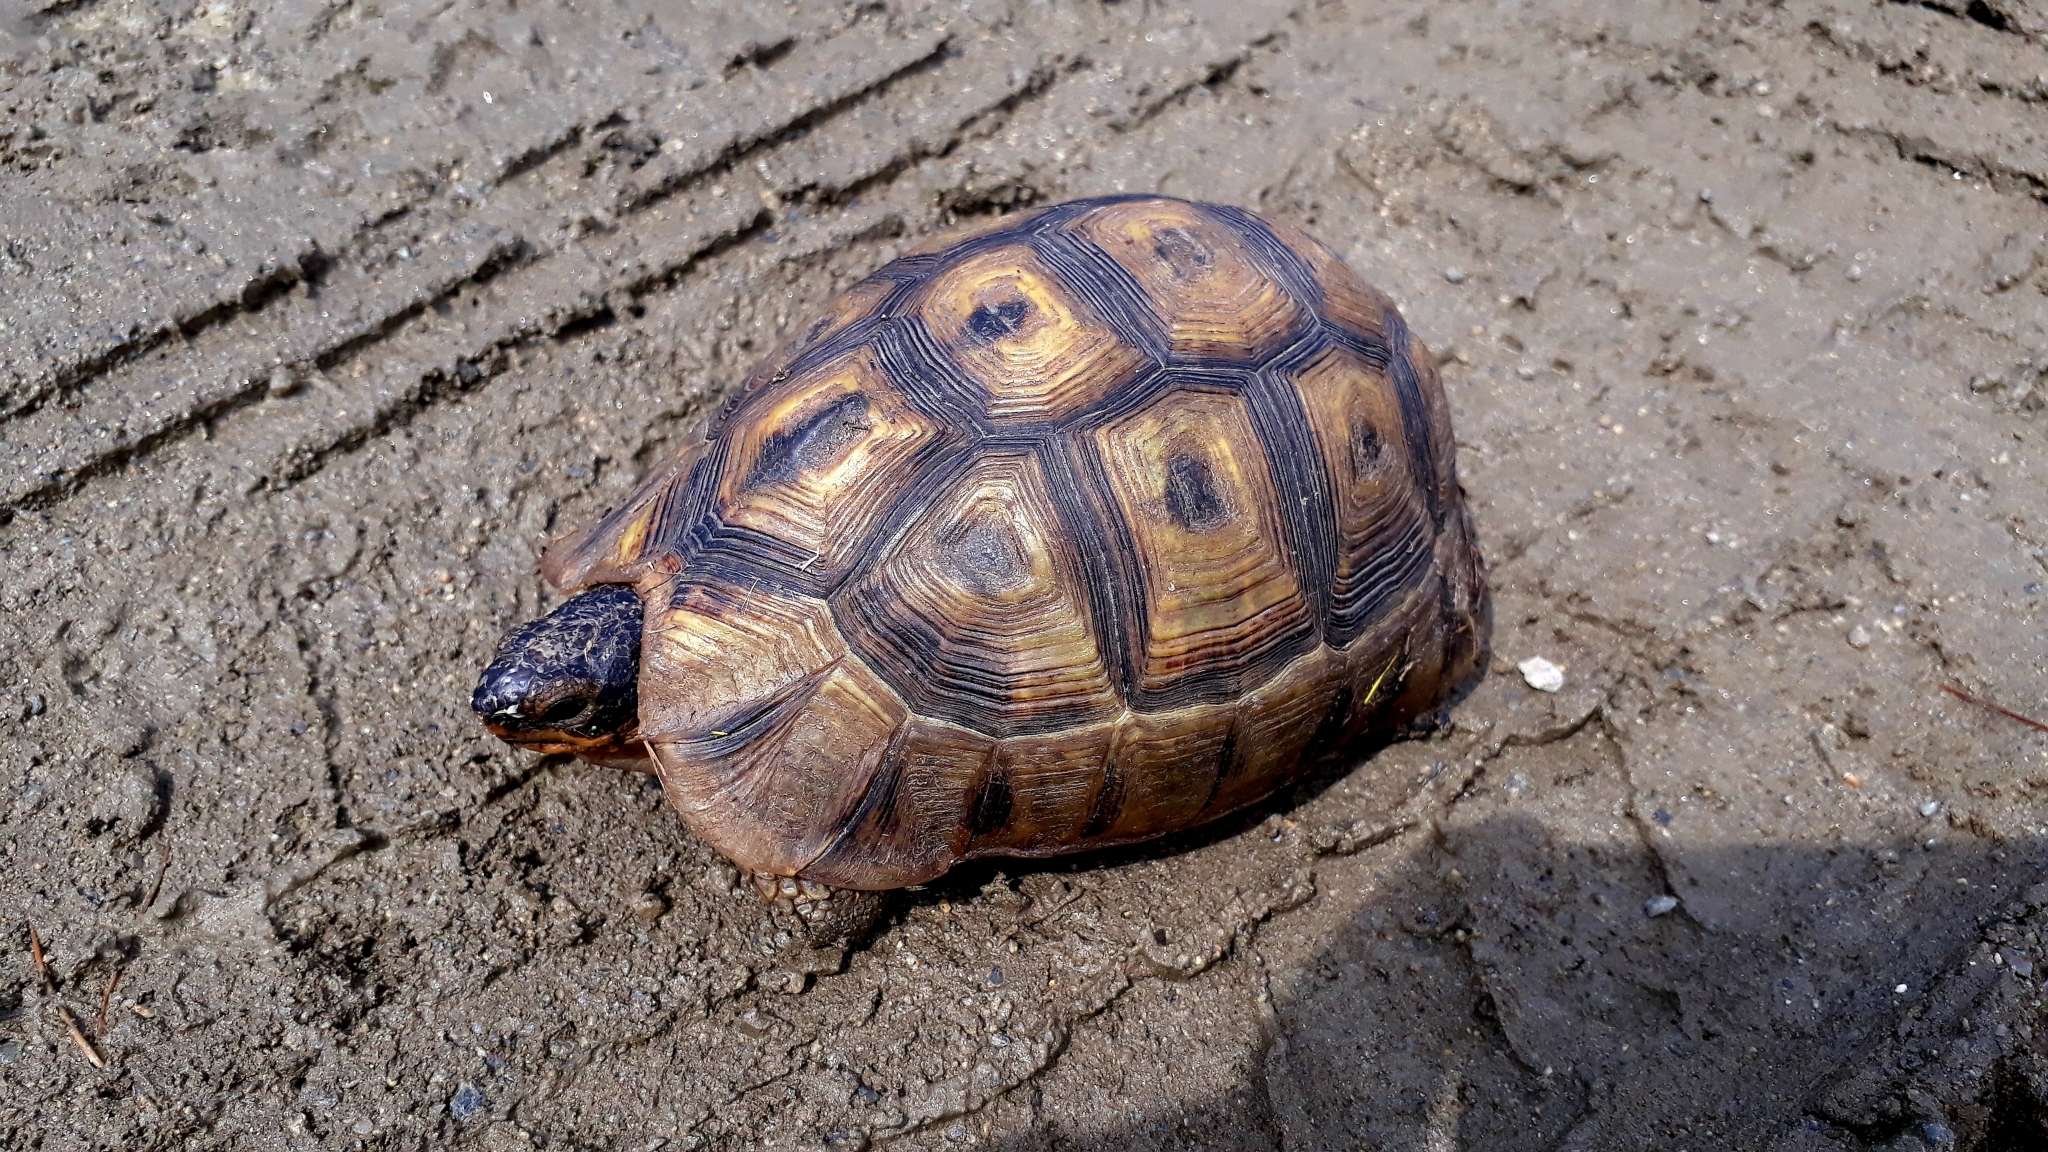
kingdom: Animalia
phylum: Chordata
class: Testudines
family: Testudinidae
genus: Chersina
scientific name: Chersina angulata
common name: South african bowsprit tortoise
